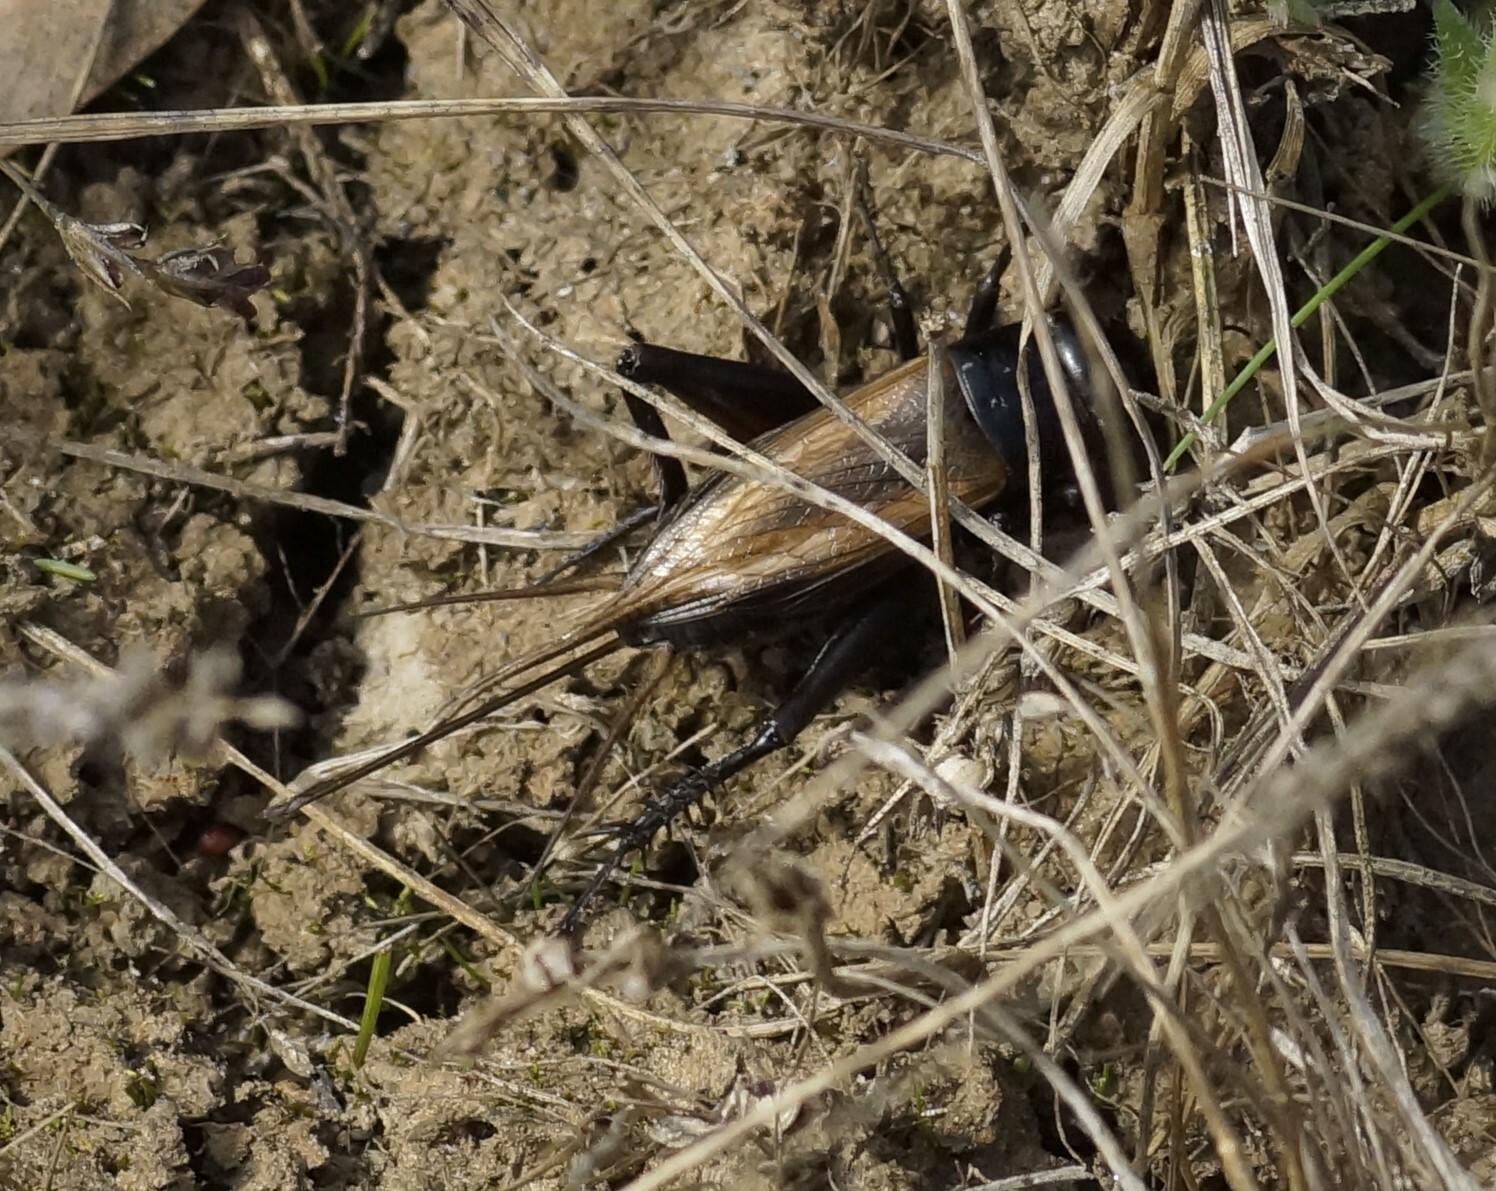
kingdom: Animalia
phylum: Arthropoda
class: Insecta
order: Orthoptera
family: Gryllidae
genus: Teleogryllus
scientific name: Teleogryllus commodus
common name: Black field cricket
